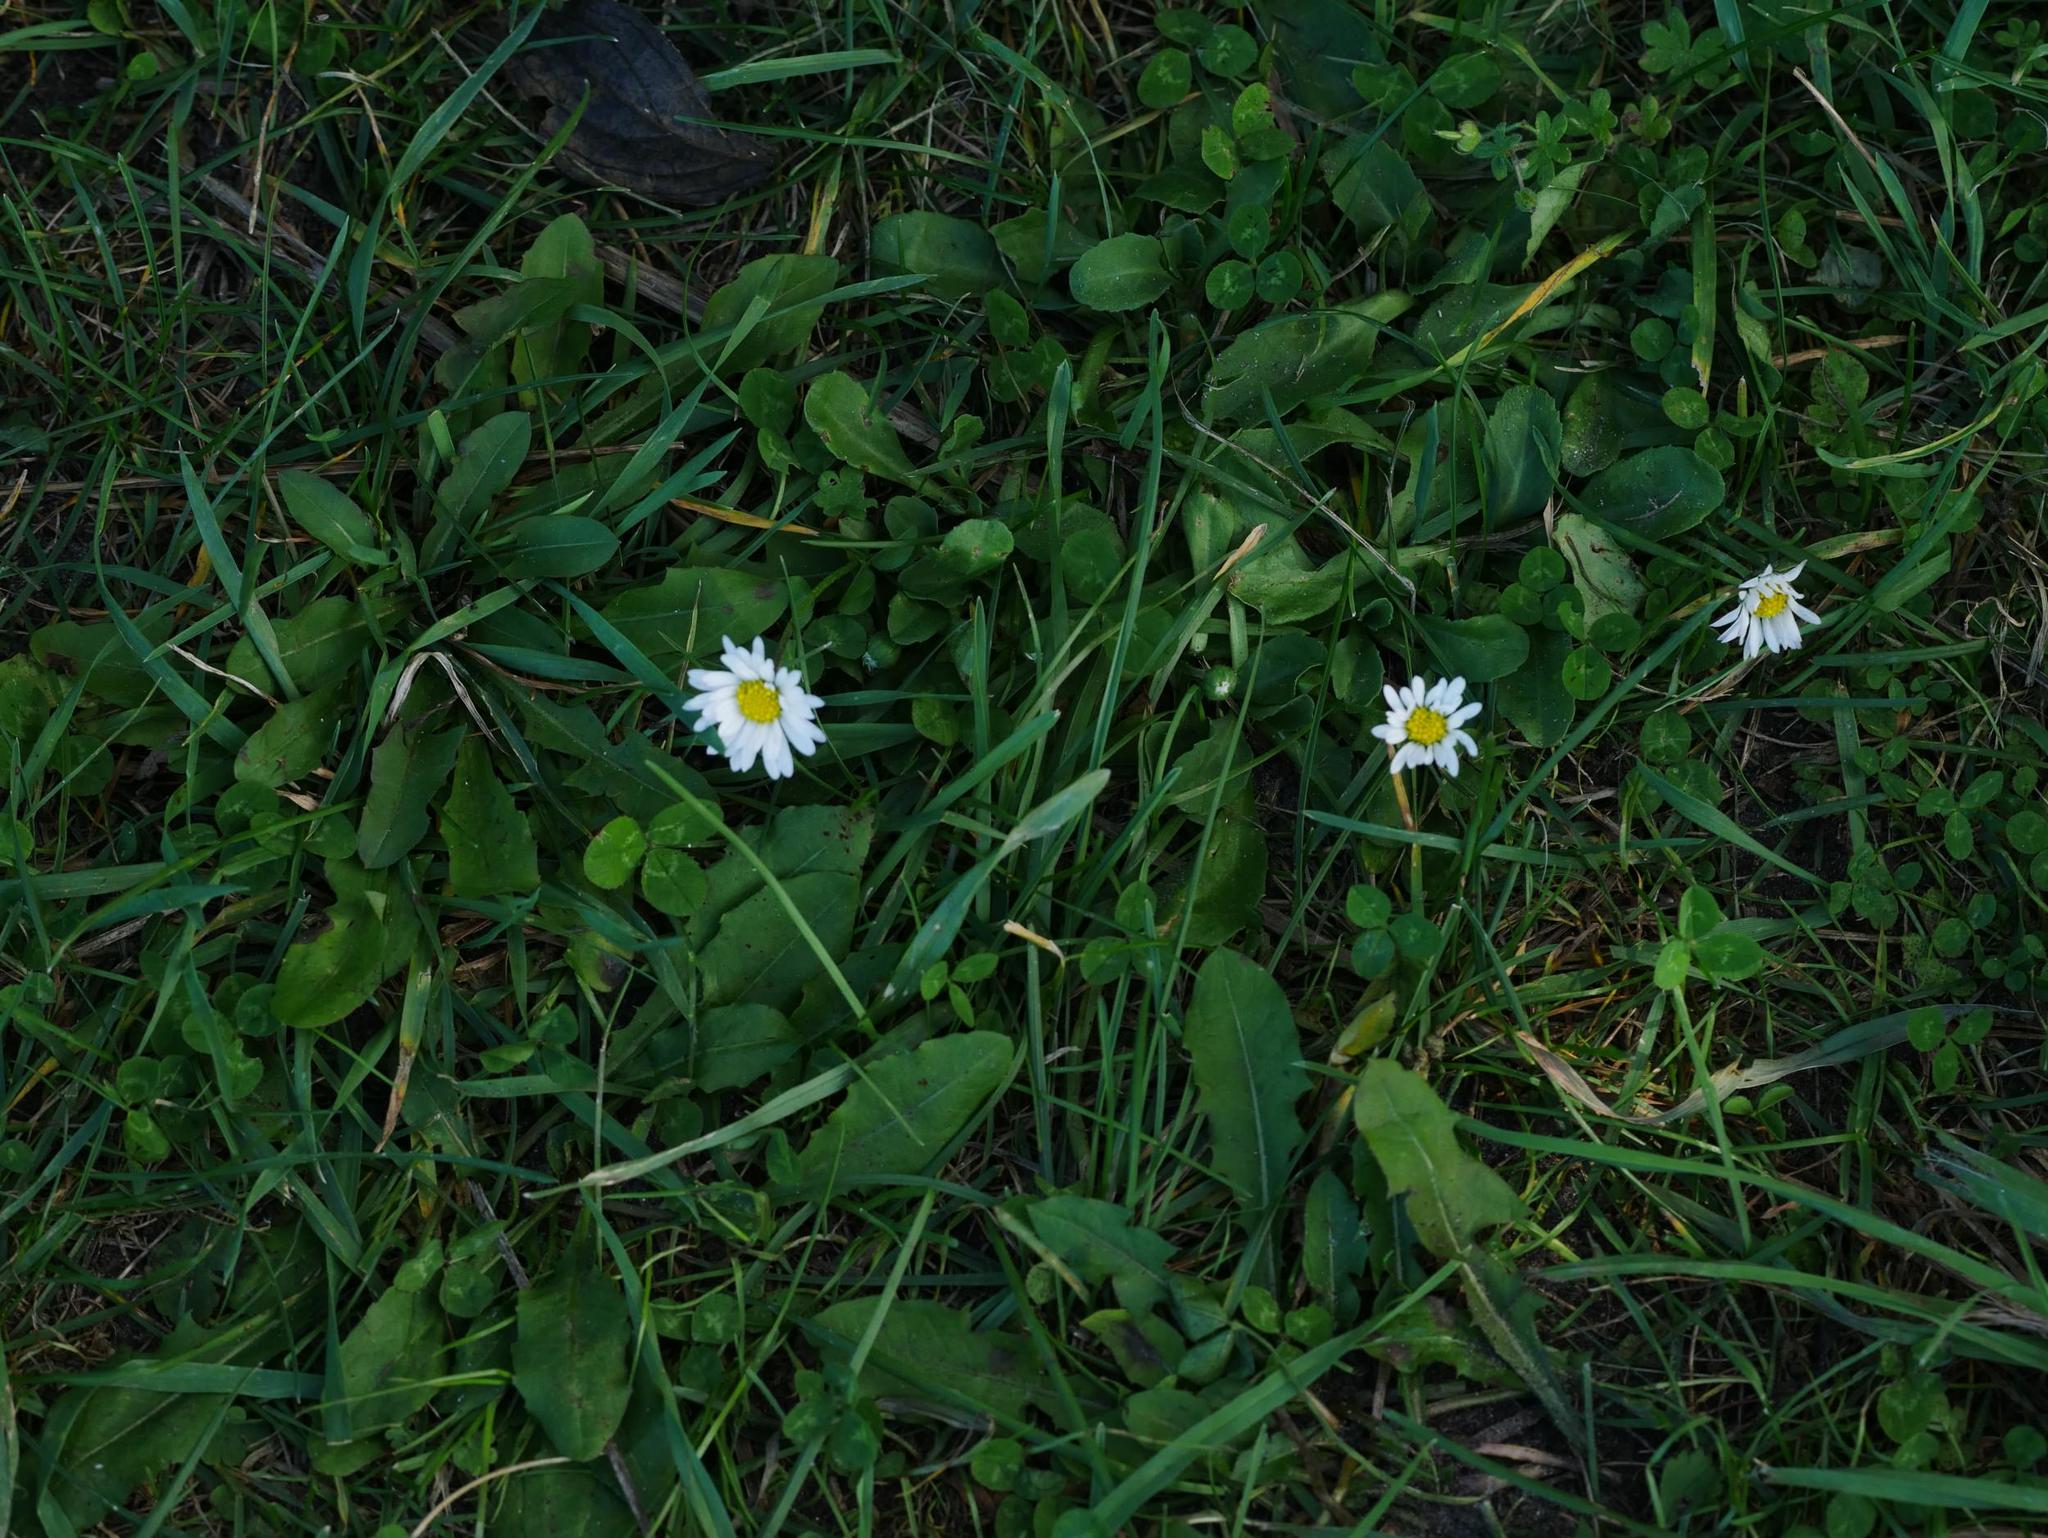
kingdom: Plantae
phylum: Tracheophyta
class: Magnoliopsida
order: Asterales
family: Asteraceae
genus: Bellis
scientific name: Bellis perennis
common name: Lawndaisy
